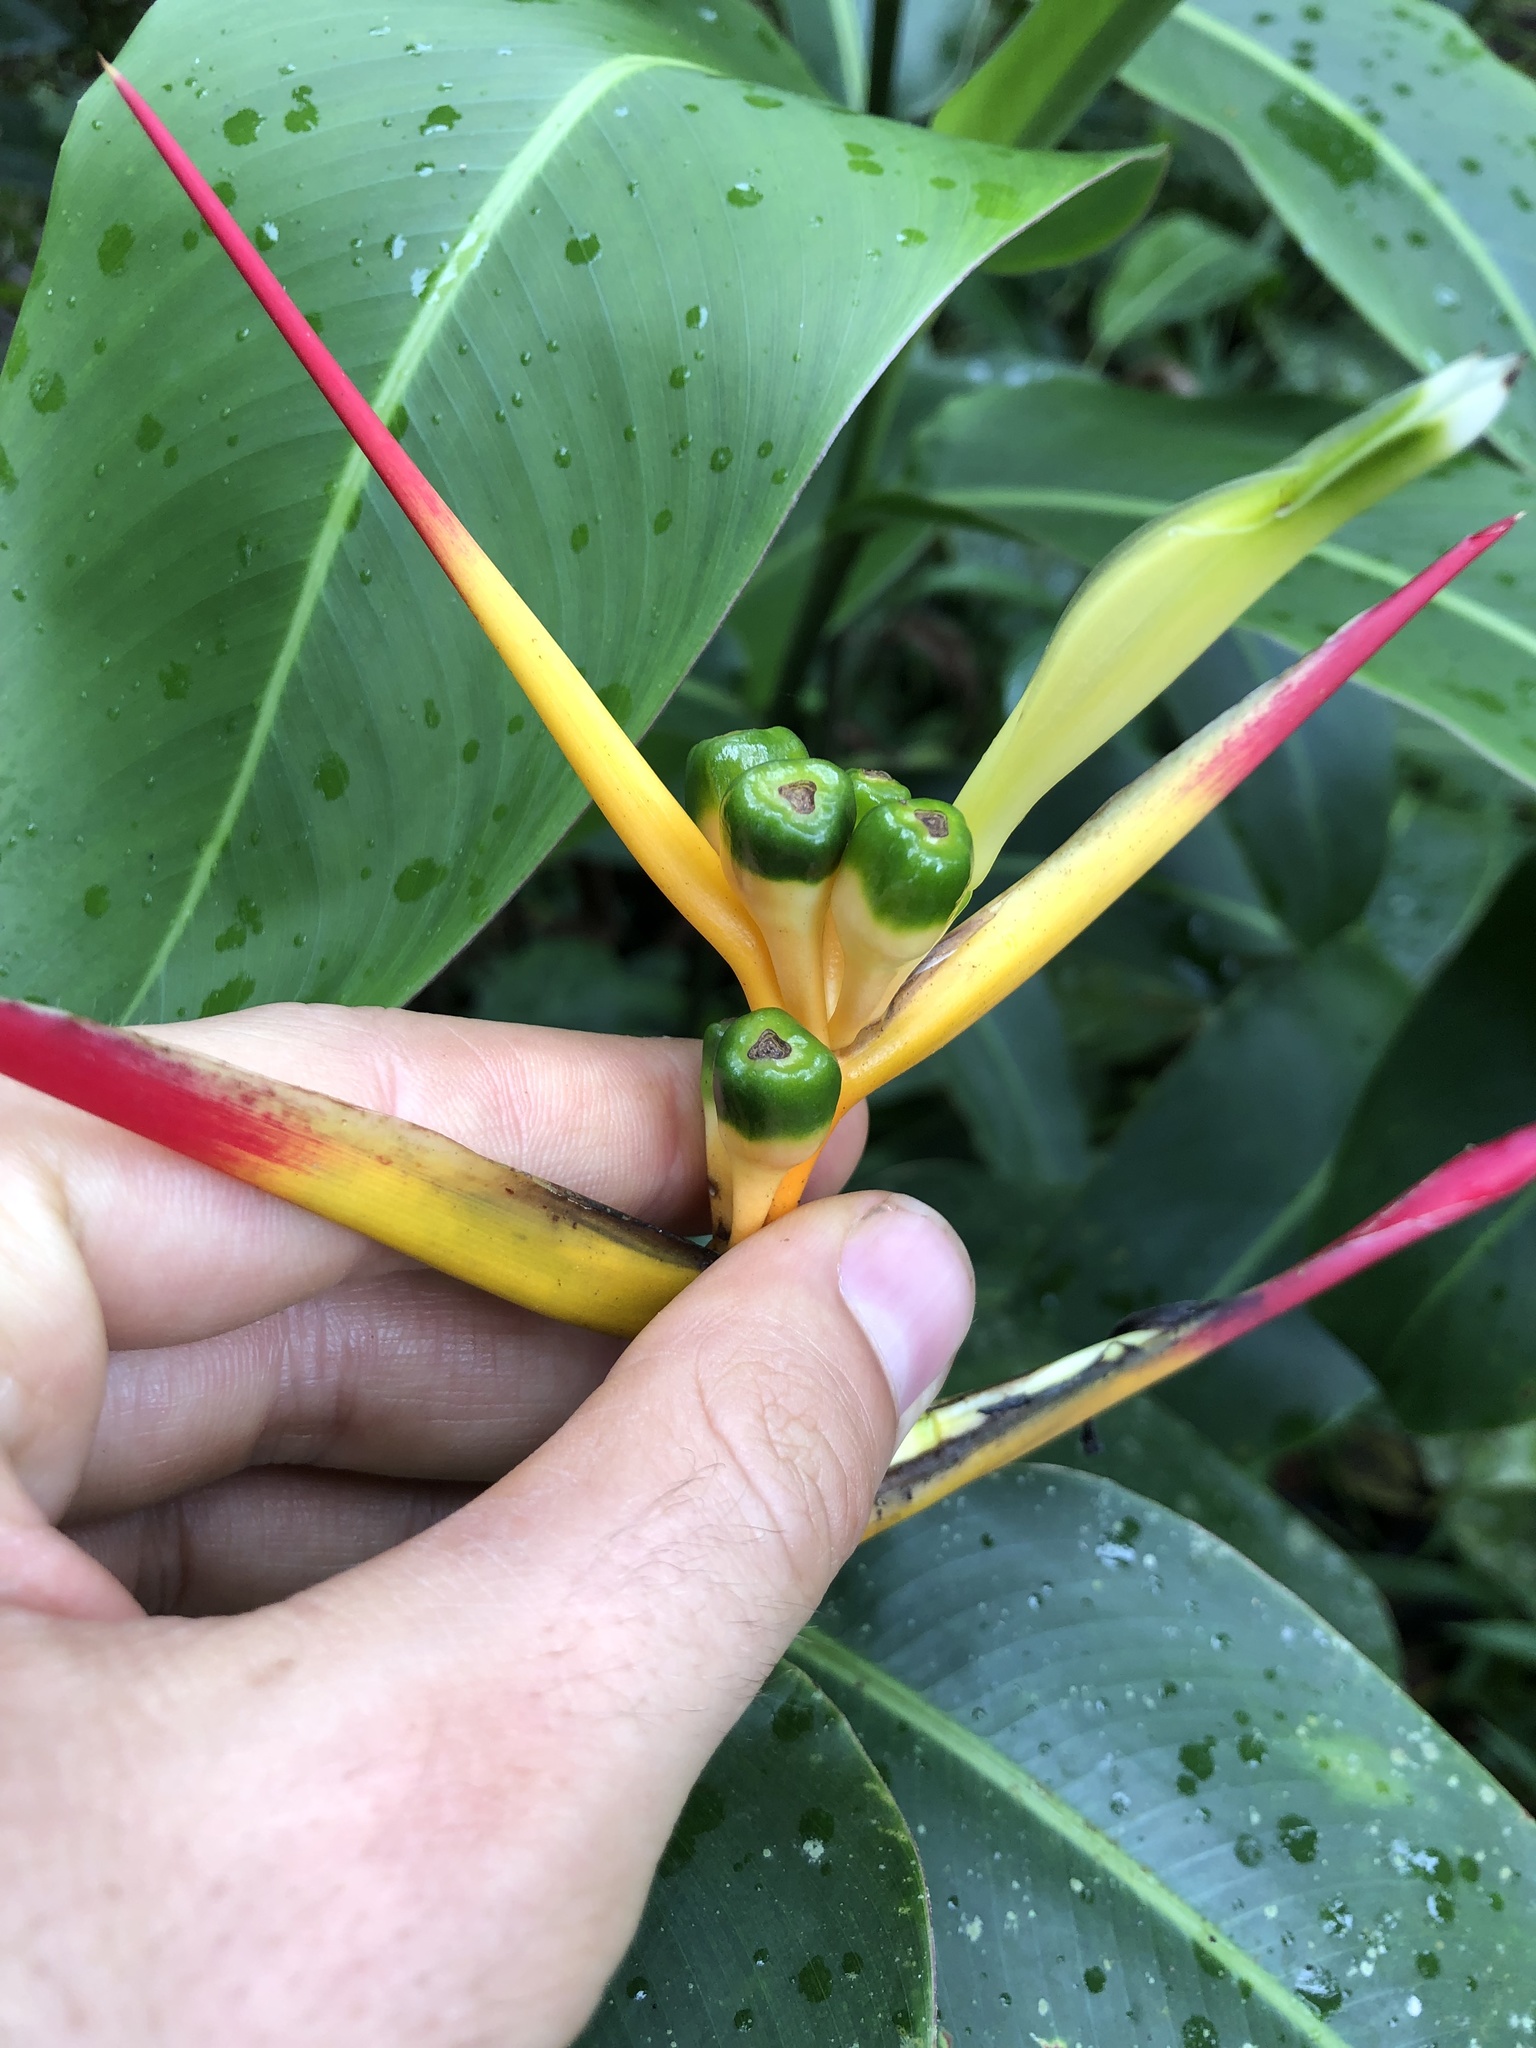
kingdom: Plantae
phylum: Tracheophyta
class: Liliopsida
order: Zingiberales
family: Heliconiaceae
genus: Heliconia
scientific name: Heliconia schumanniana
